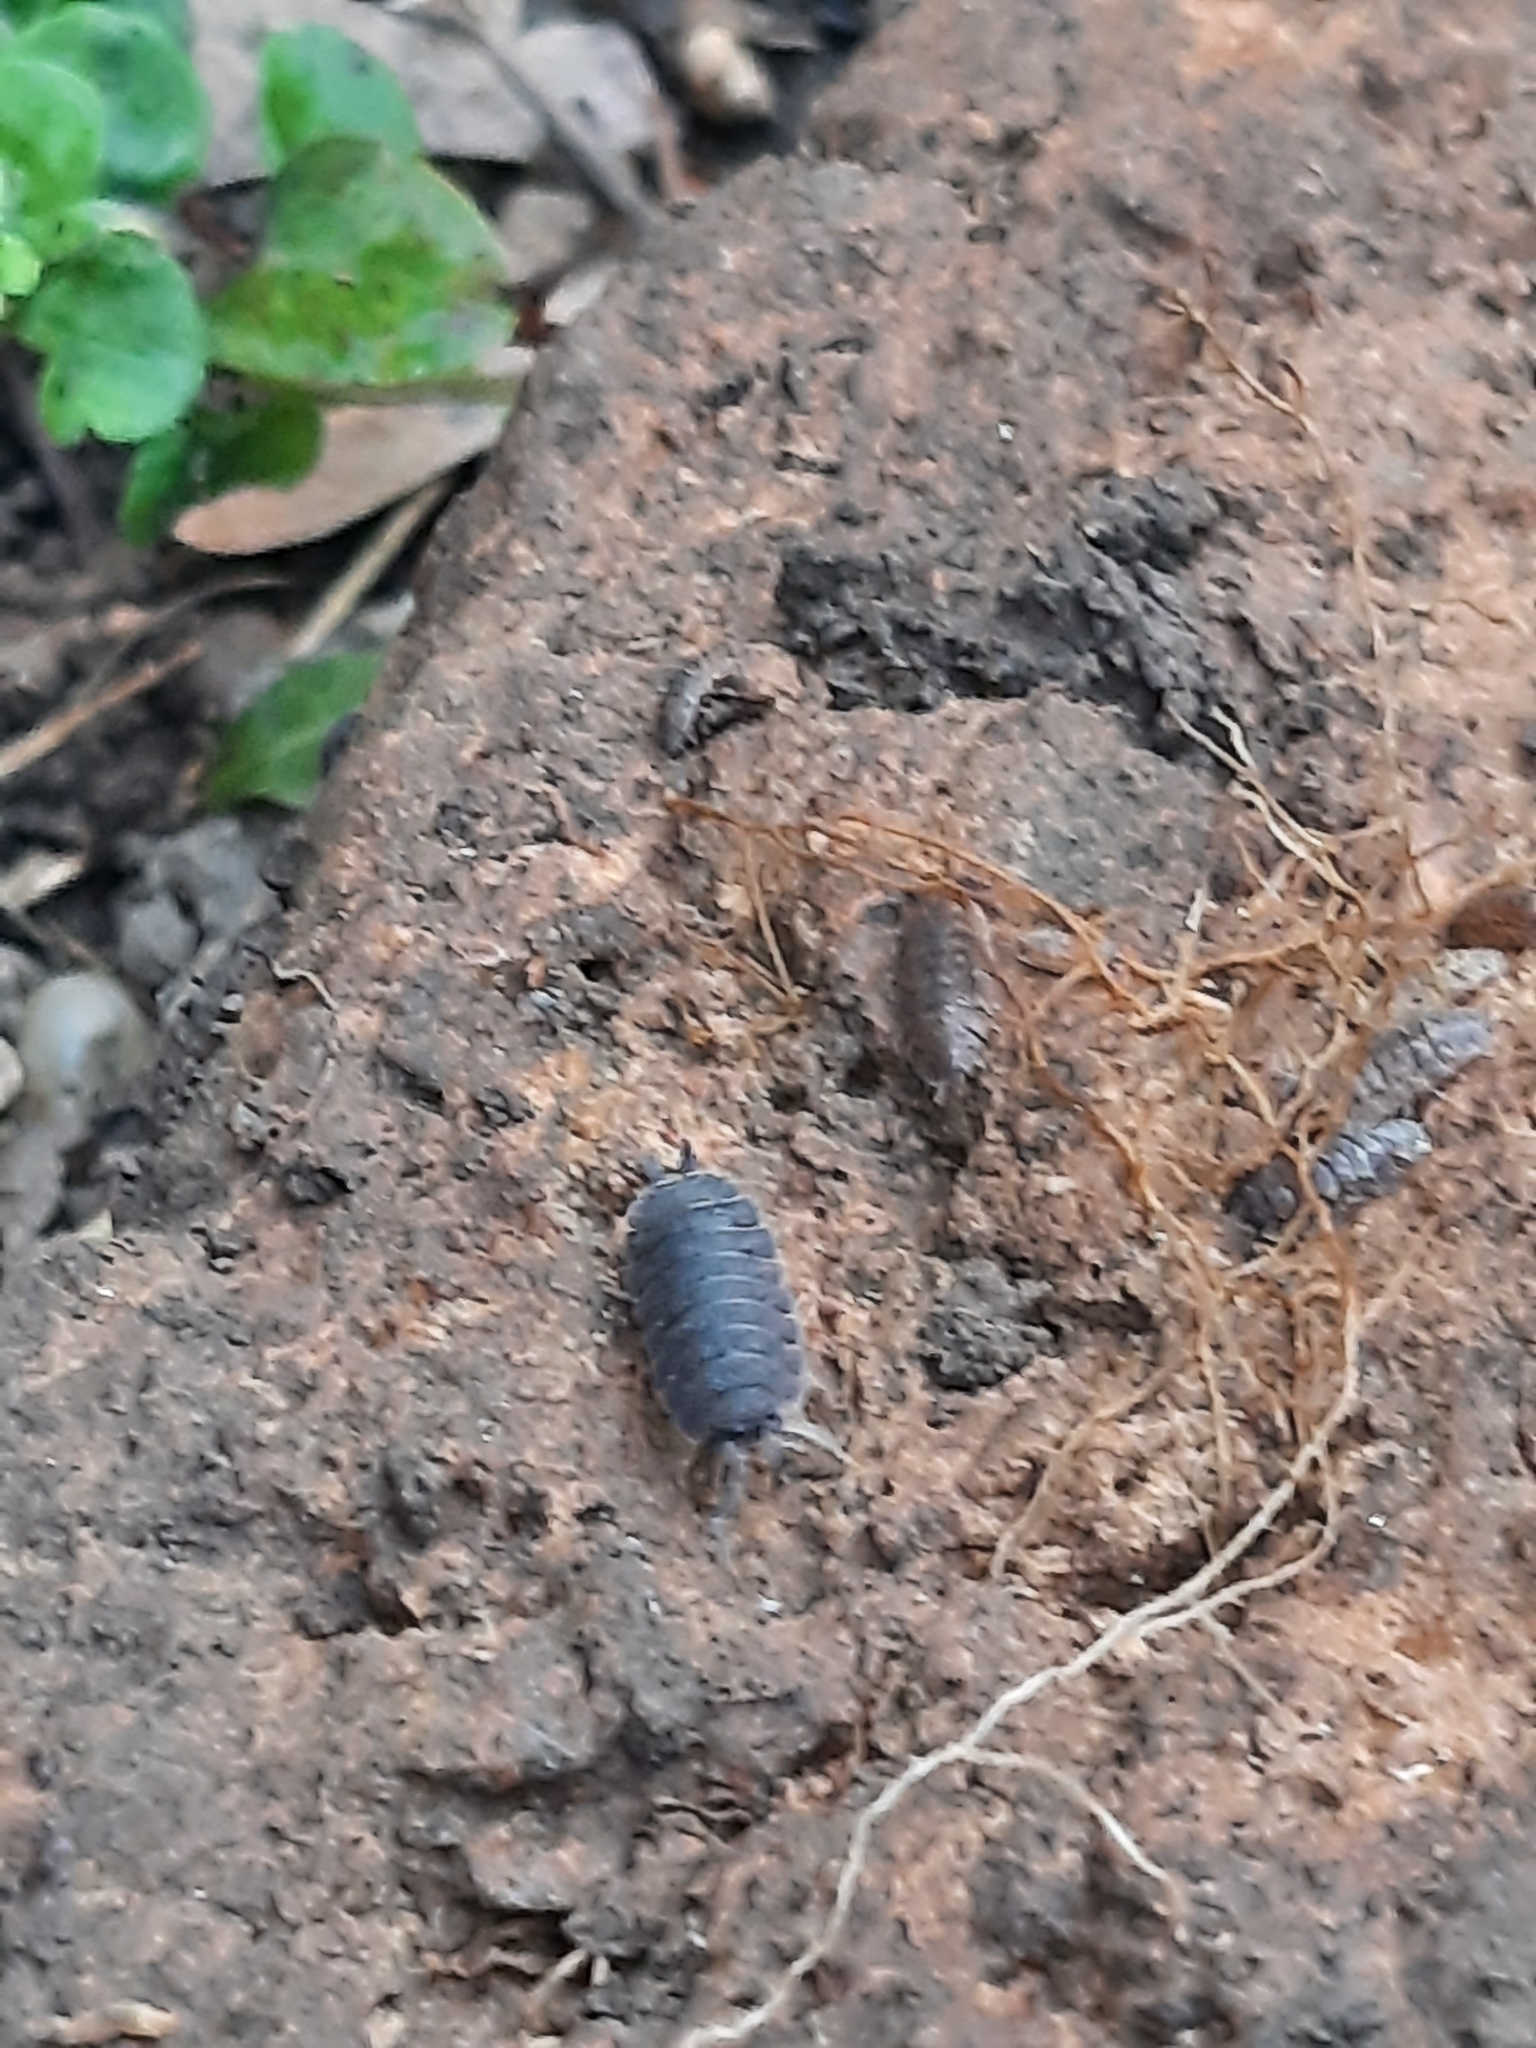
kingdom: Animalia
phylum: Arthropoda
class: Malacostraca
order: Isopoda
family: Porcellionidae
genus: Porcellio
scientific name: Porcellio scaber
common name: Common rough woodlouse
